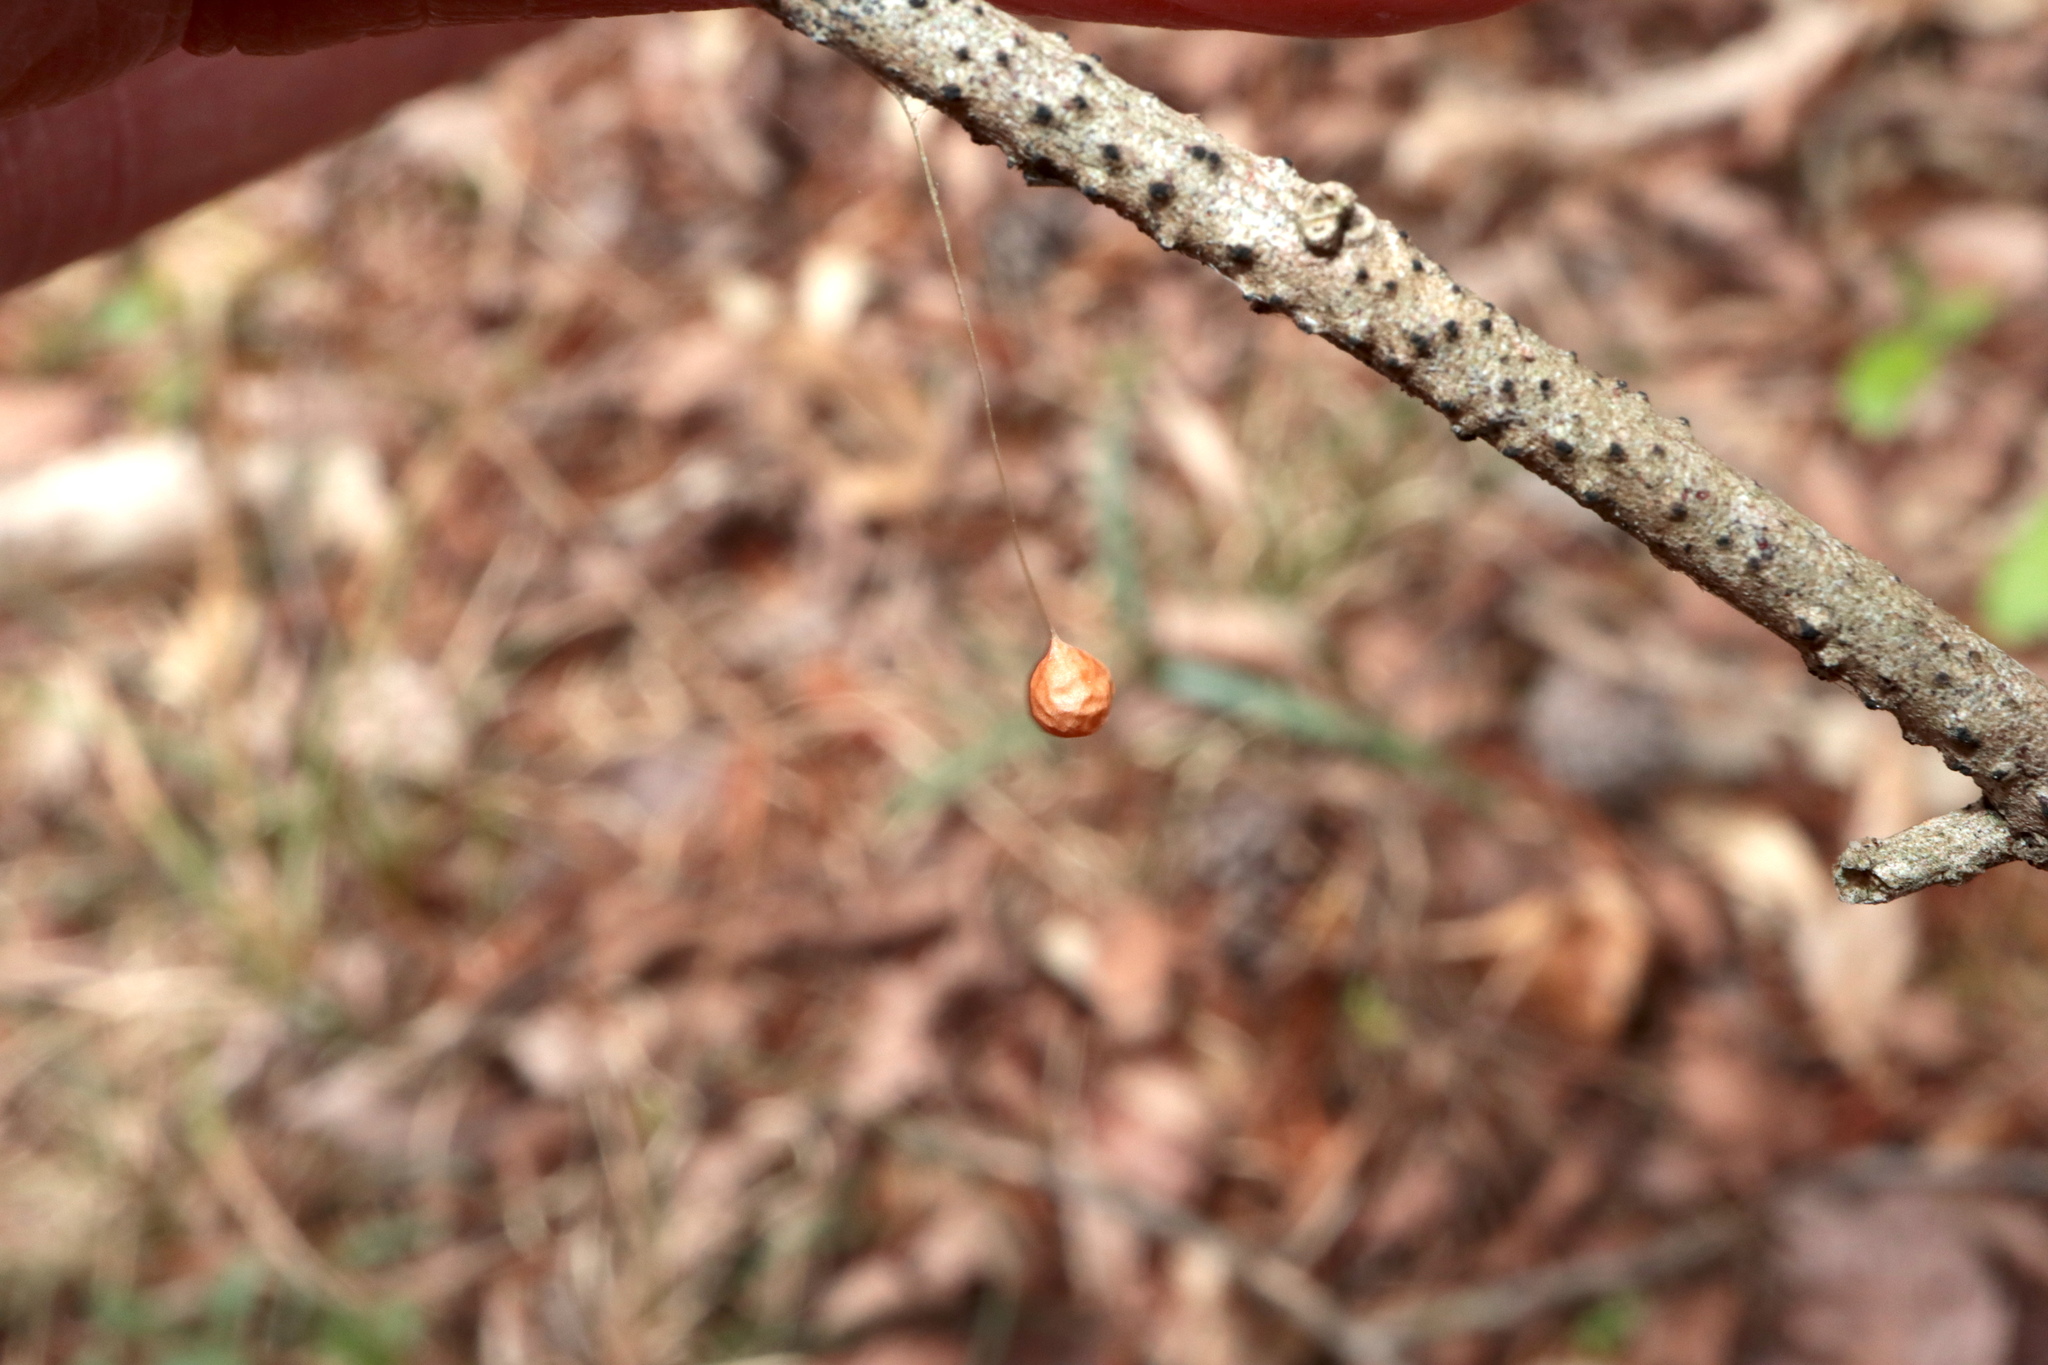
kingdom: Animalia
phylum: Arthropoda
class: Arachnida
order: Araneae
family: Theridiosomatidae
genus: Theridiosoma
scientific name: Theridiosoma gemmosum
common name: Ray spider
